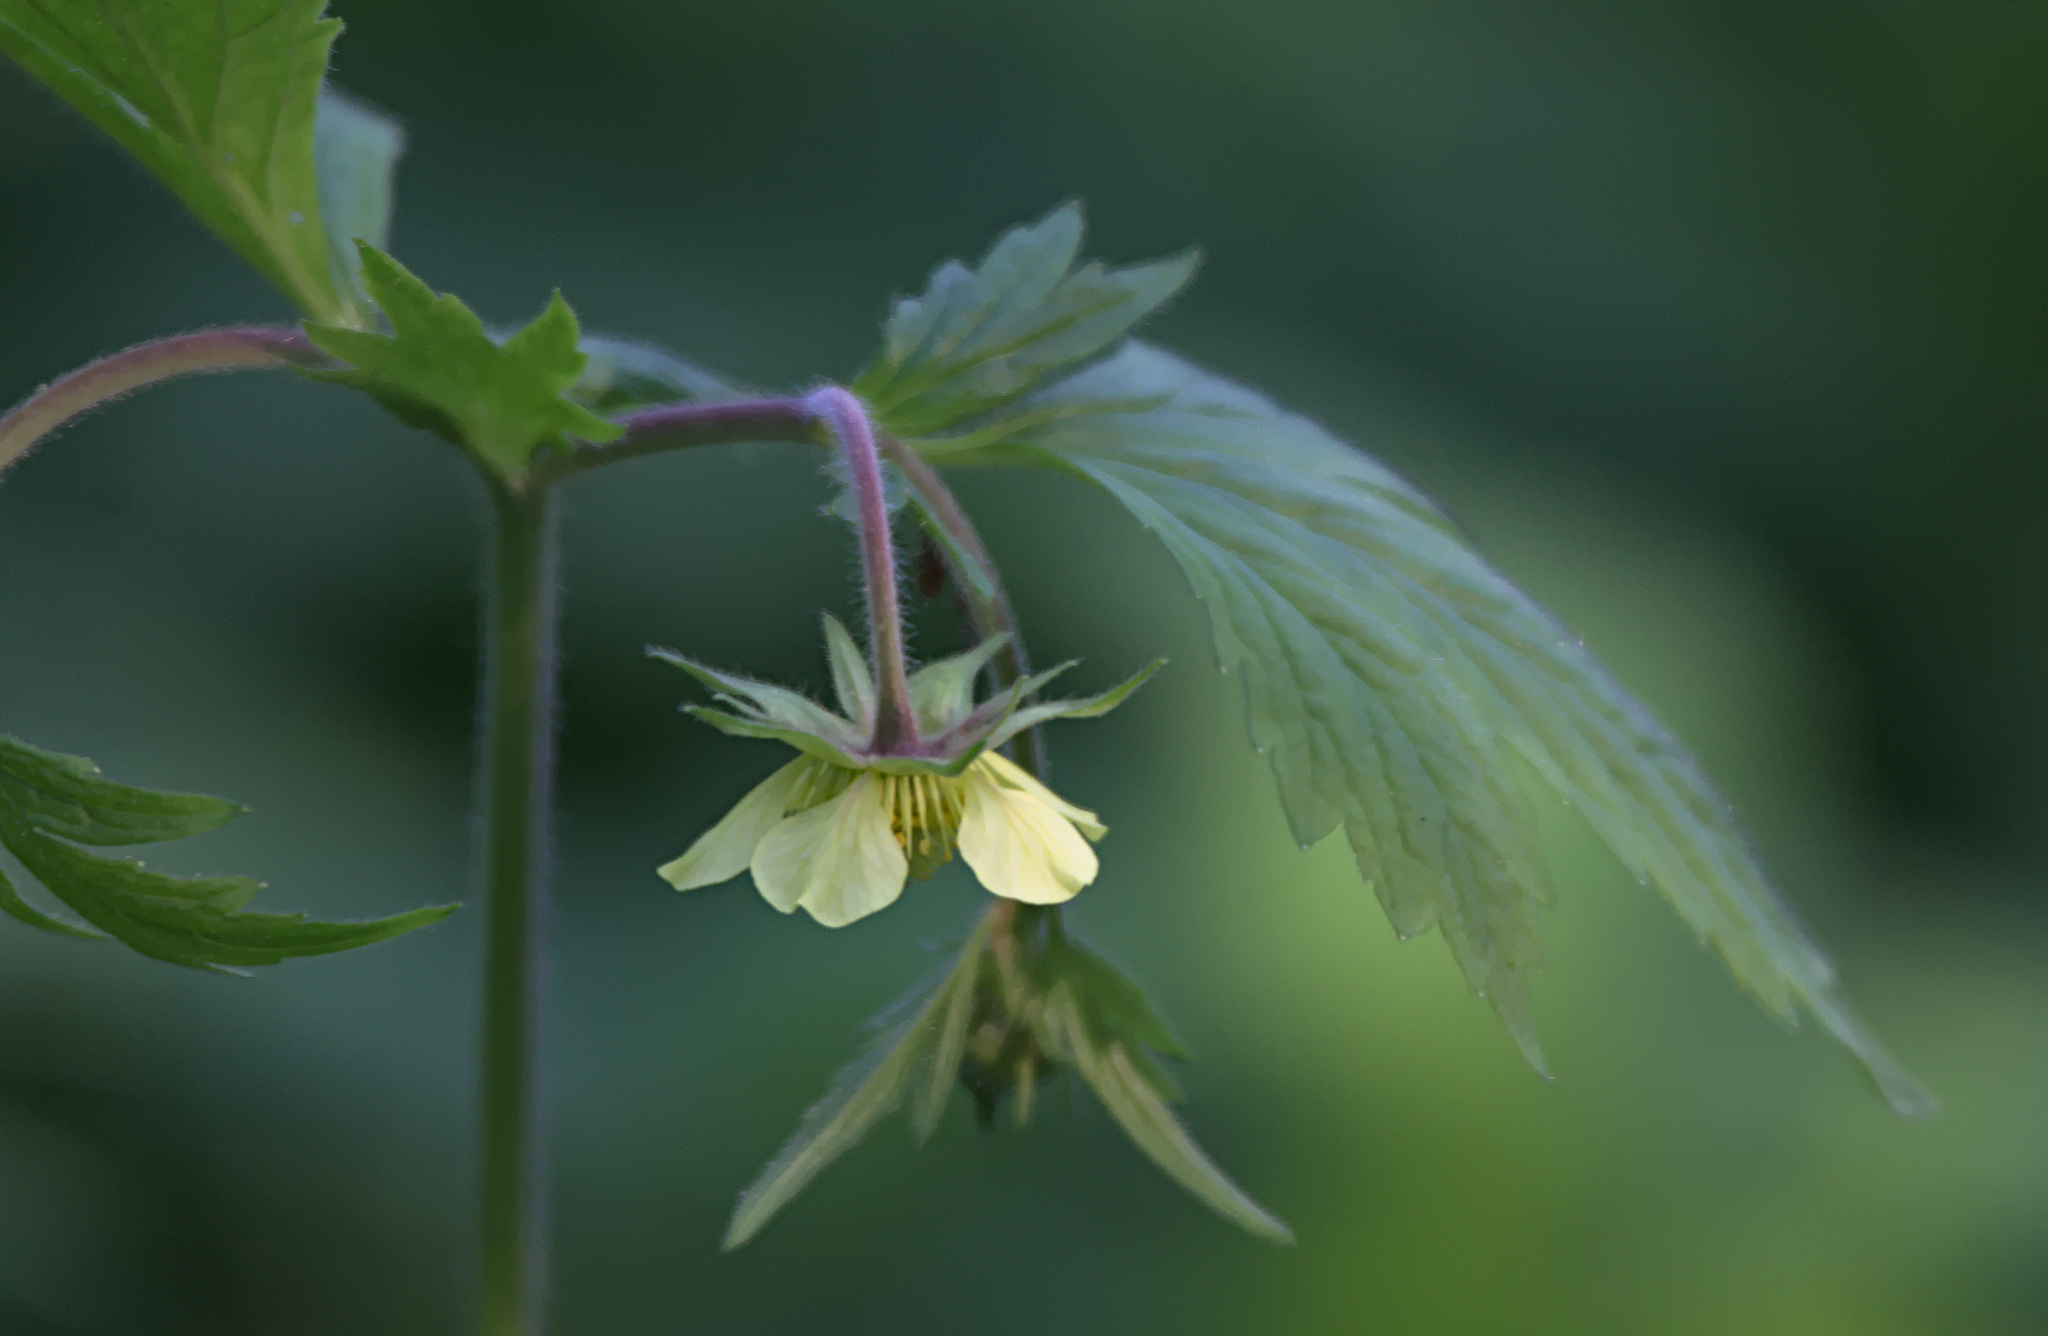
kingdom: Plantae
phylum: Tracheophyta
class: Magnoliopsida
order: Rosales
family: Rosaceae
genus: Geum
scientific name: Geum rivale
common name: Water avens
